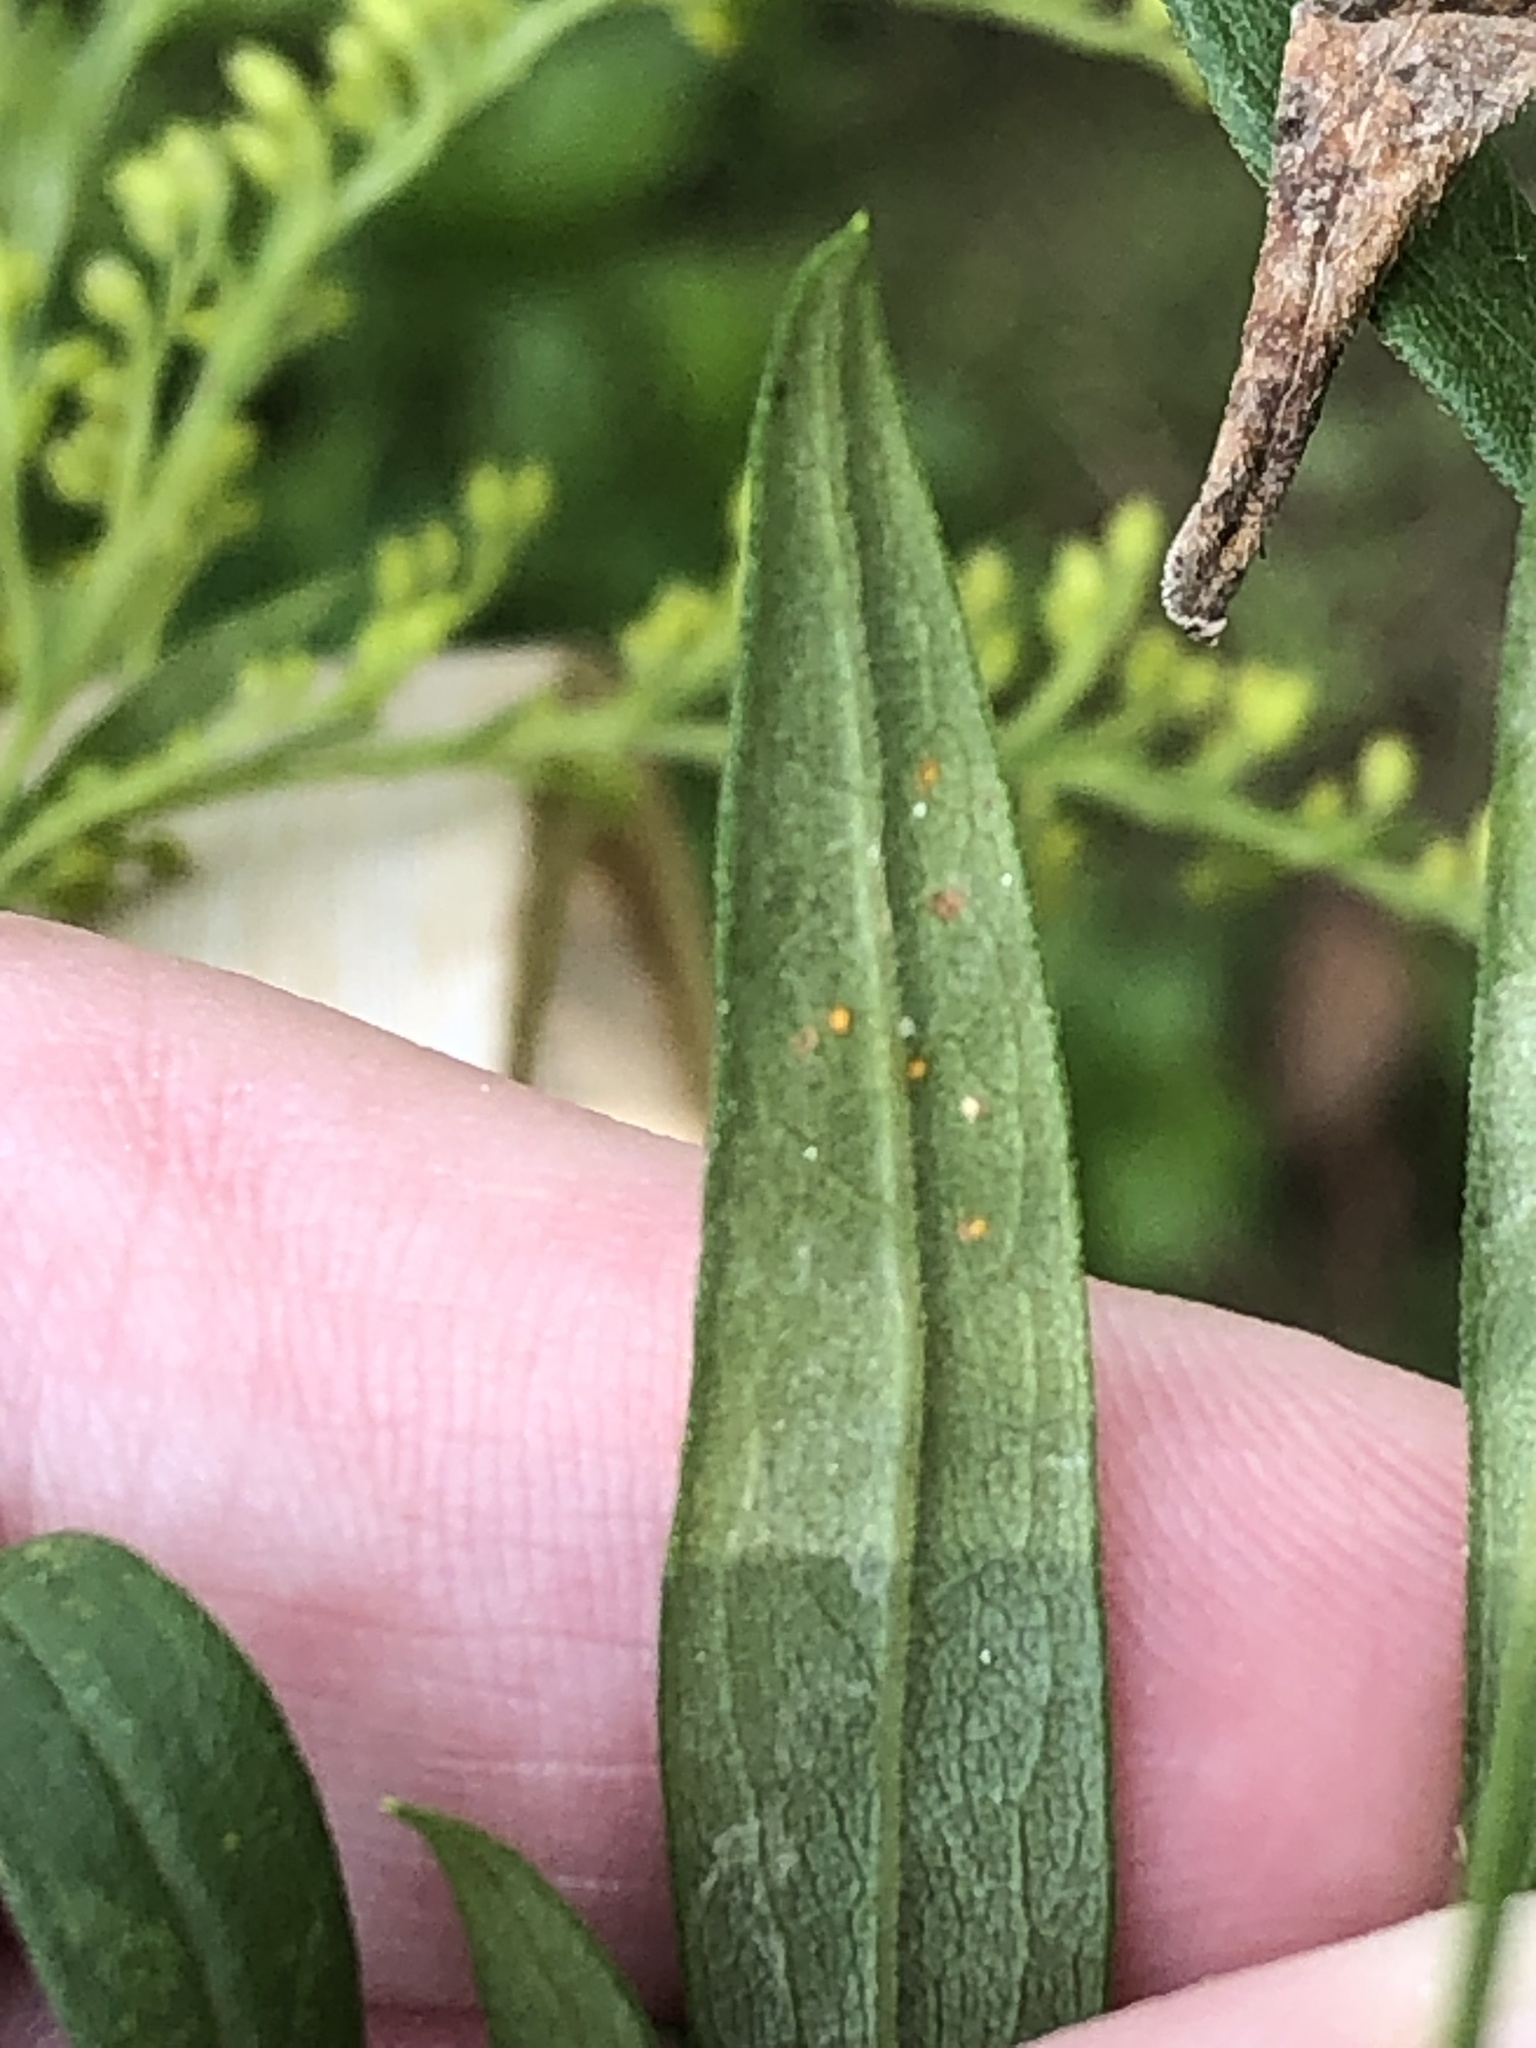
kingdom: Fungi
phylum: Basidiomycota
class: Pucciniomycetes
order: Pucciniales
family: Coleosporiaceae
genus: Coleosporium
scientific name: Coleosporium asterum
